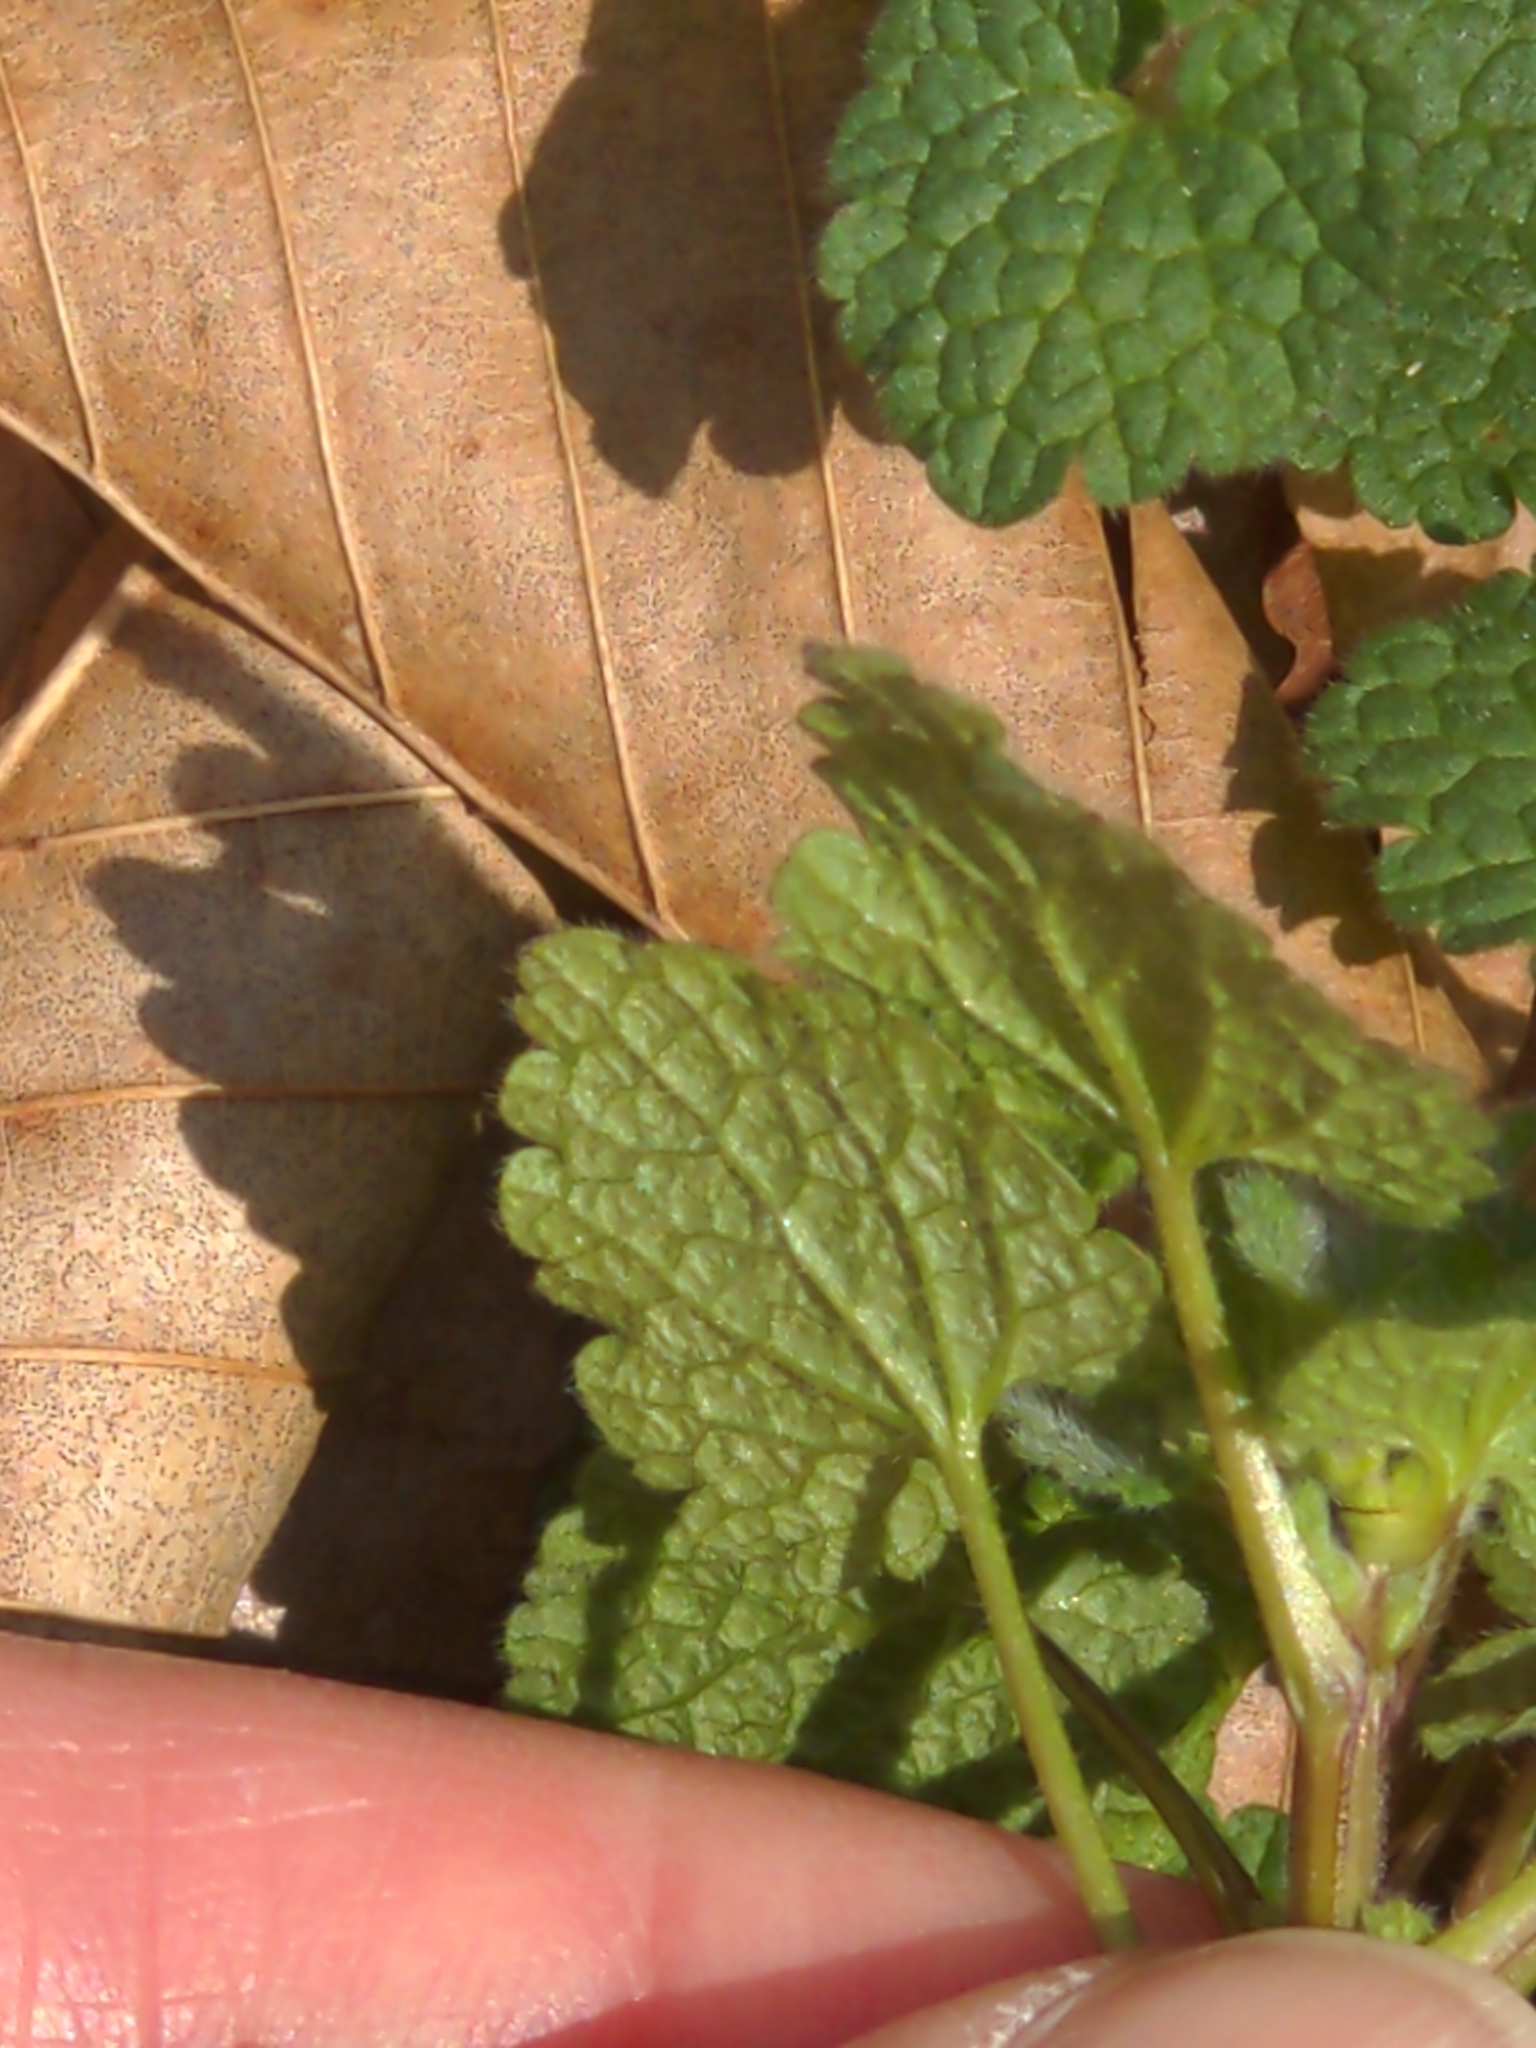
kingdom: Plantae
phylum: Tracheophyta
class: Magnoliopsida
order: Lamiales
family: Lamiaceae
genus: Lamium
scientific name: Lamium purpureum
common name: Red dead-nettle
